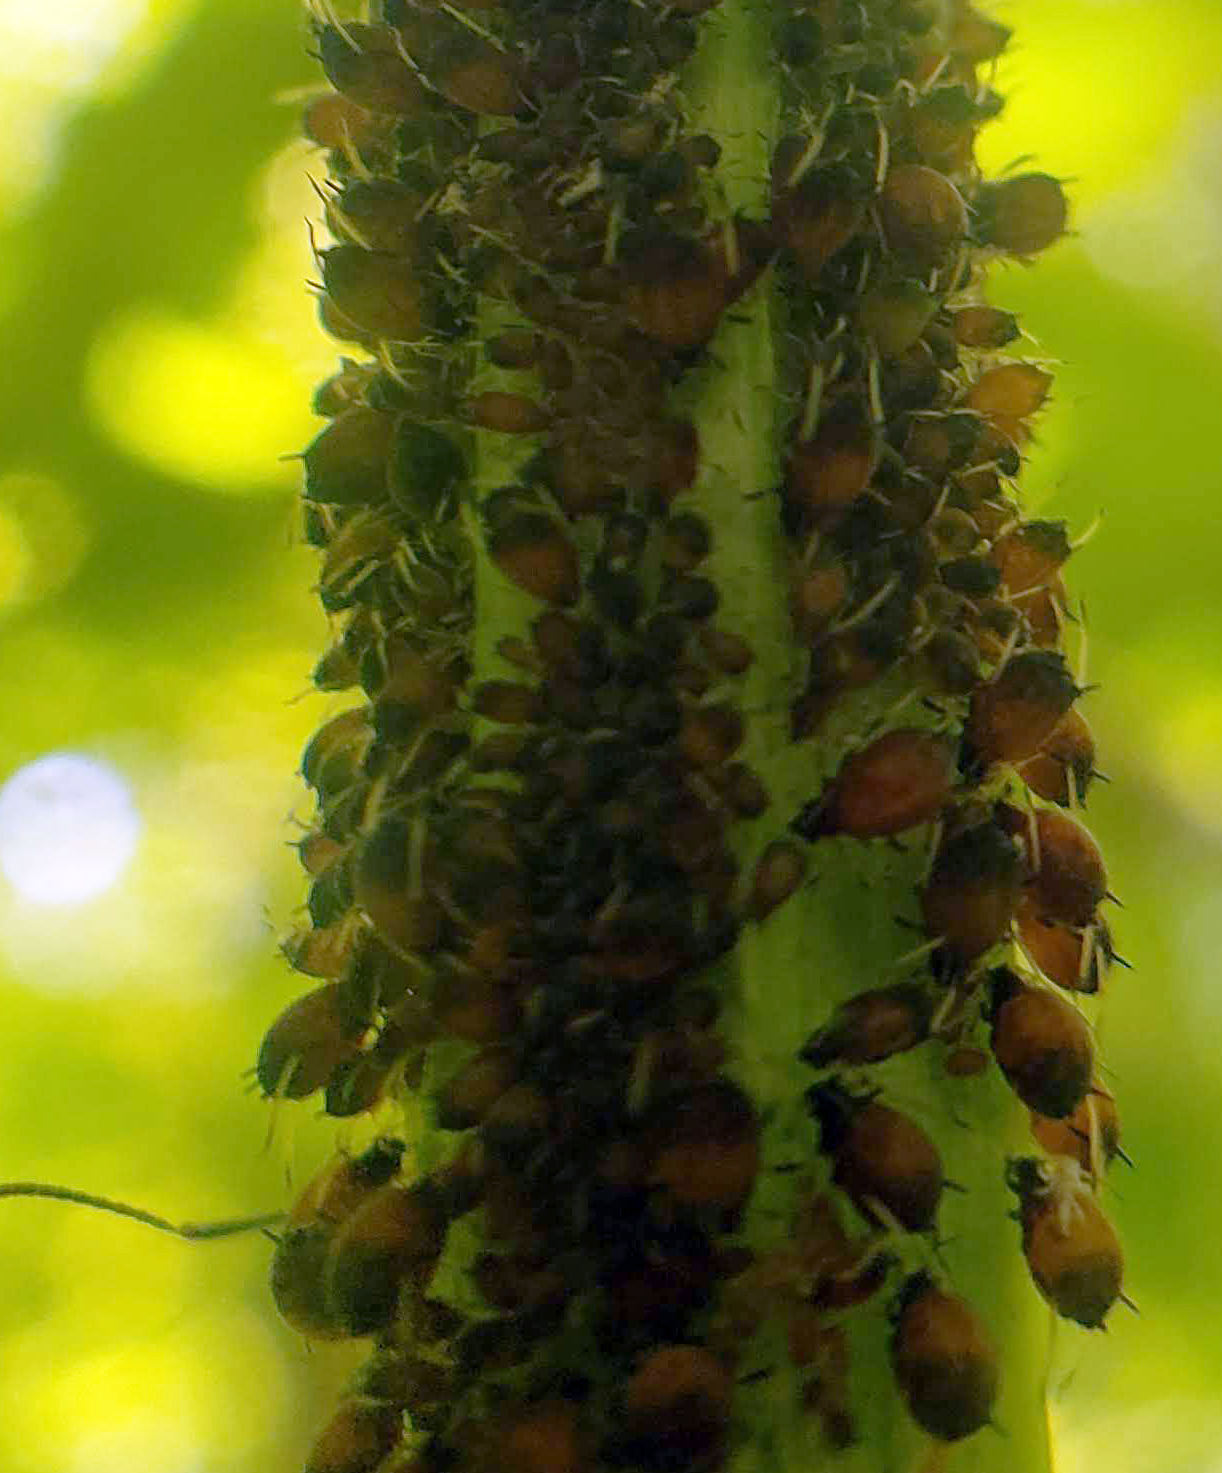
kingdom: Animalia
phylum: Arthropoda
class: Insecta
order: Hemiptera
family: Aphididae
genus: Aphis
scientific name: Aphis viburniphila
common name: Viburnum aphid
